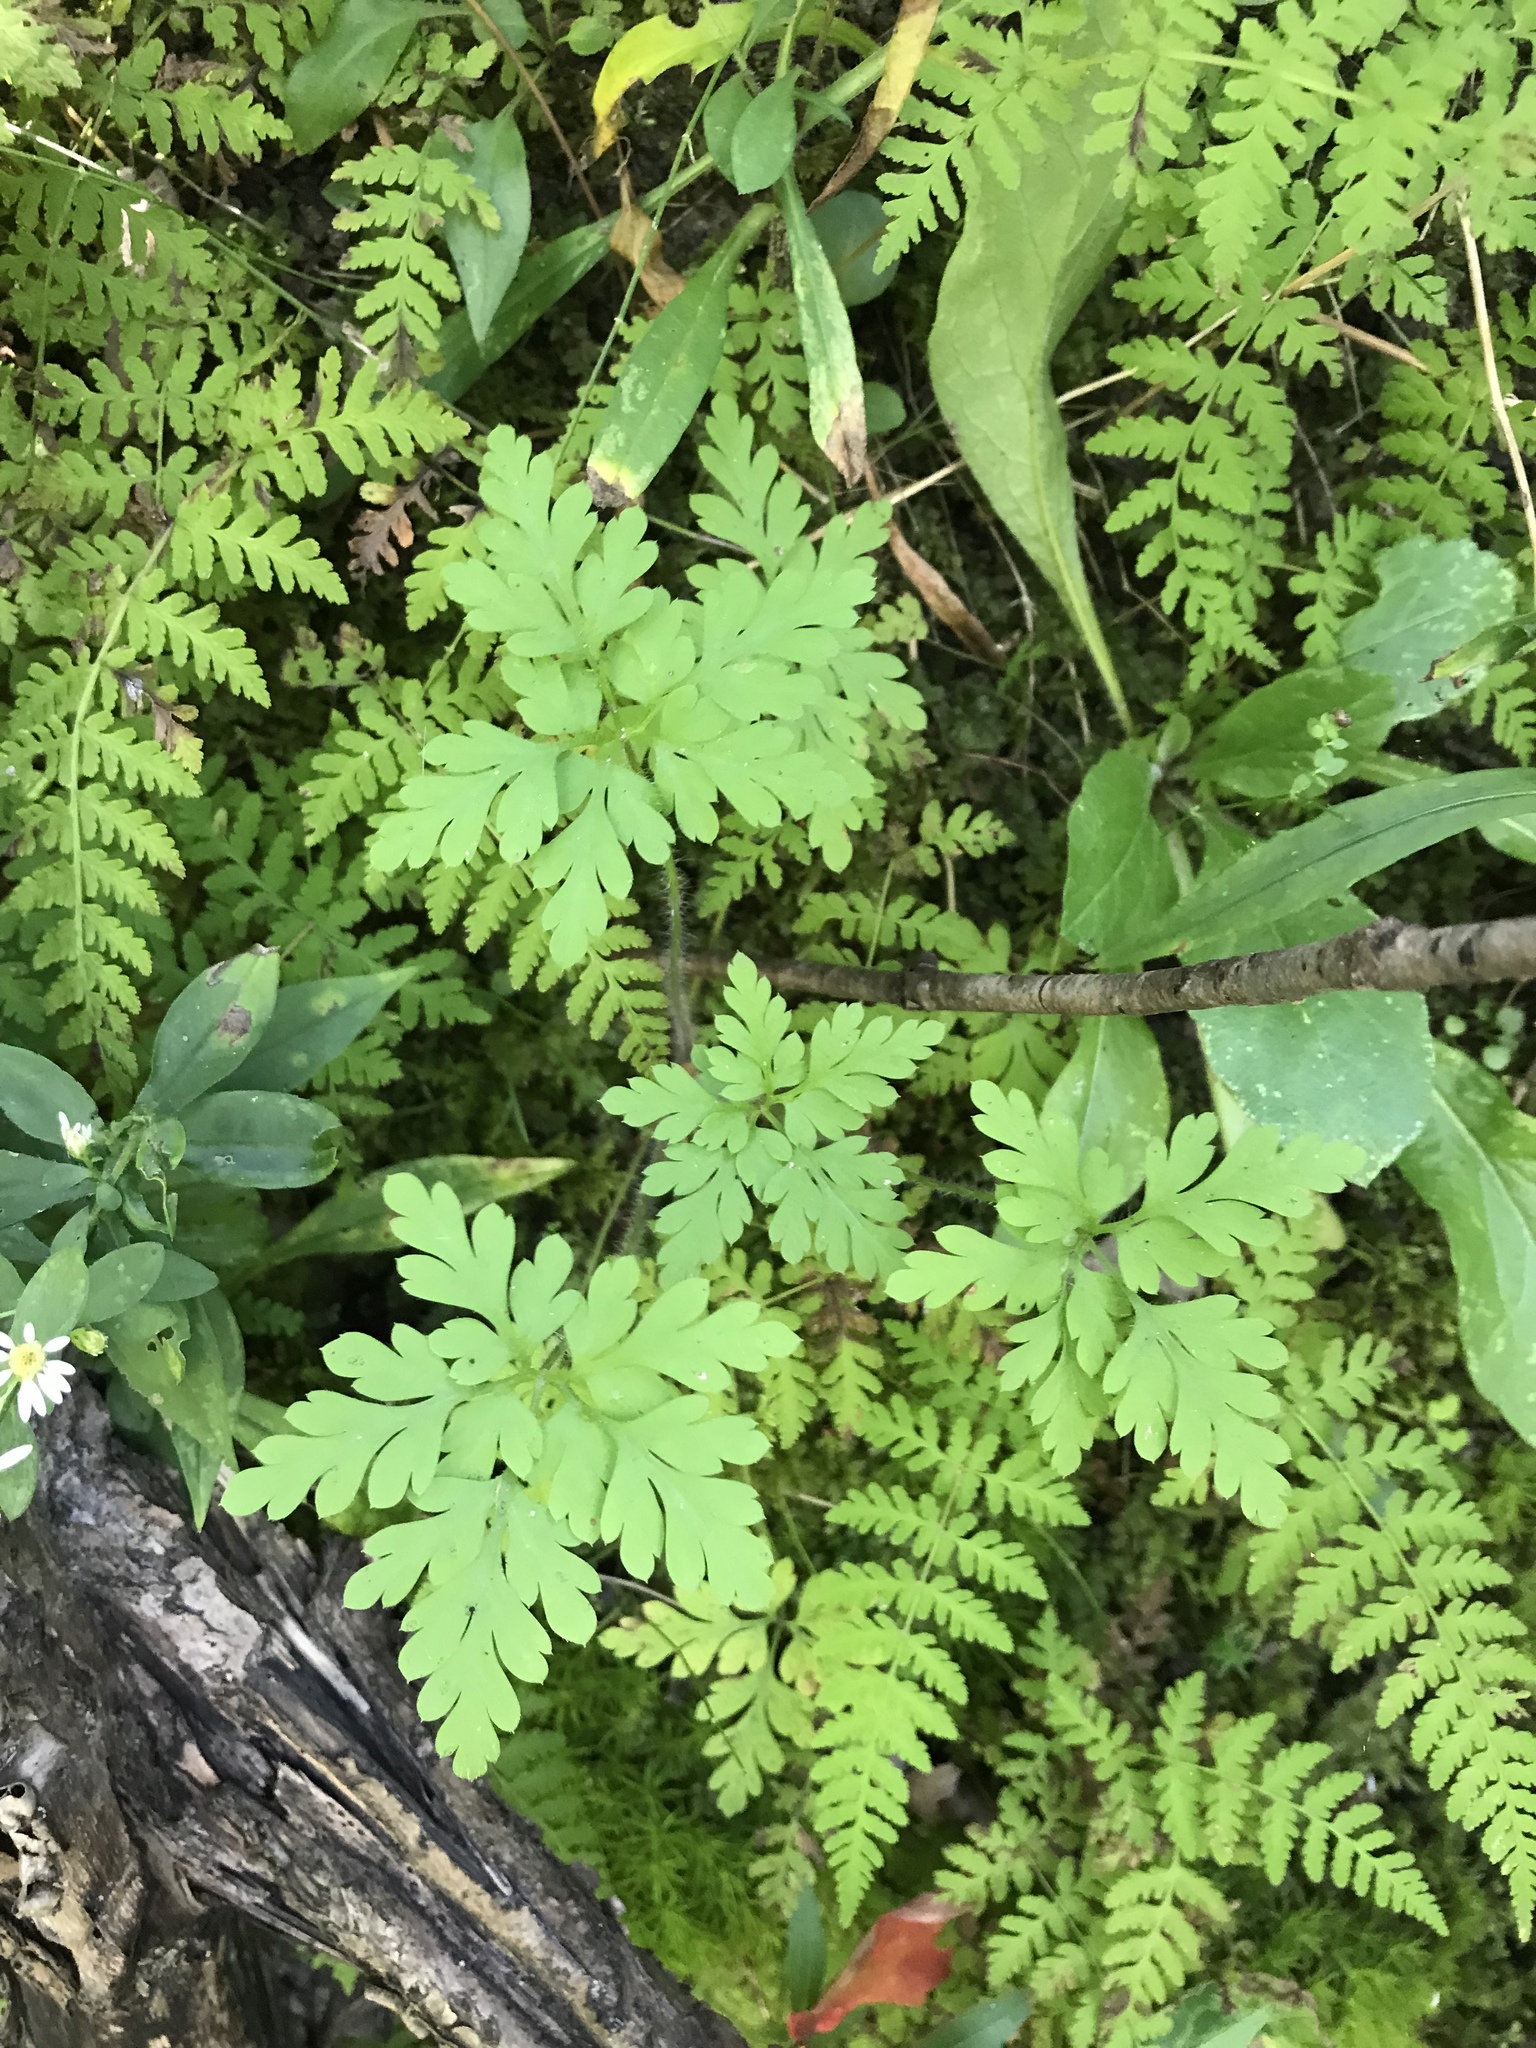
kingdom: Plantae
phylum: Tracheophyta
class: Magnoliopsida
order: Geraniales
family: Geraniaceae
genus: Geranium
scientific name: Geranium robertianum
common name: Herb-robert
